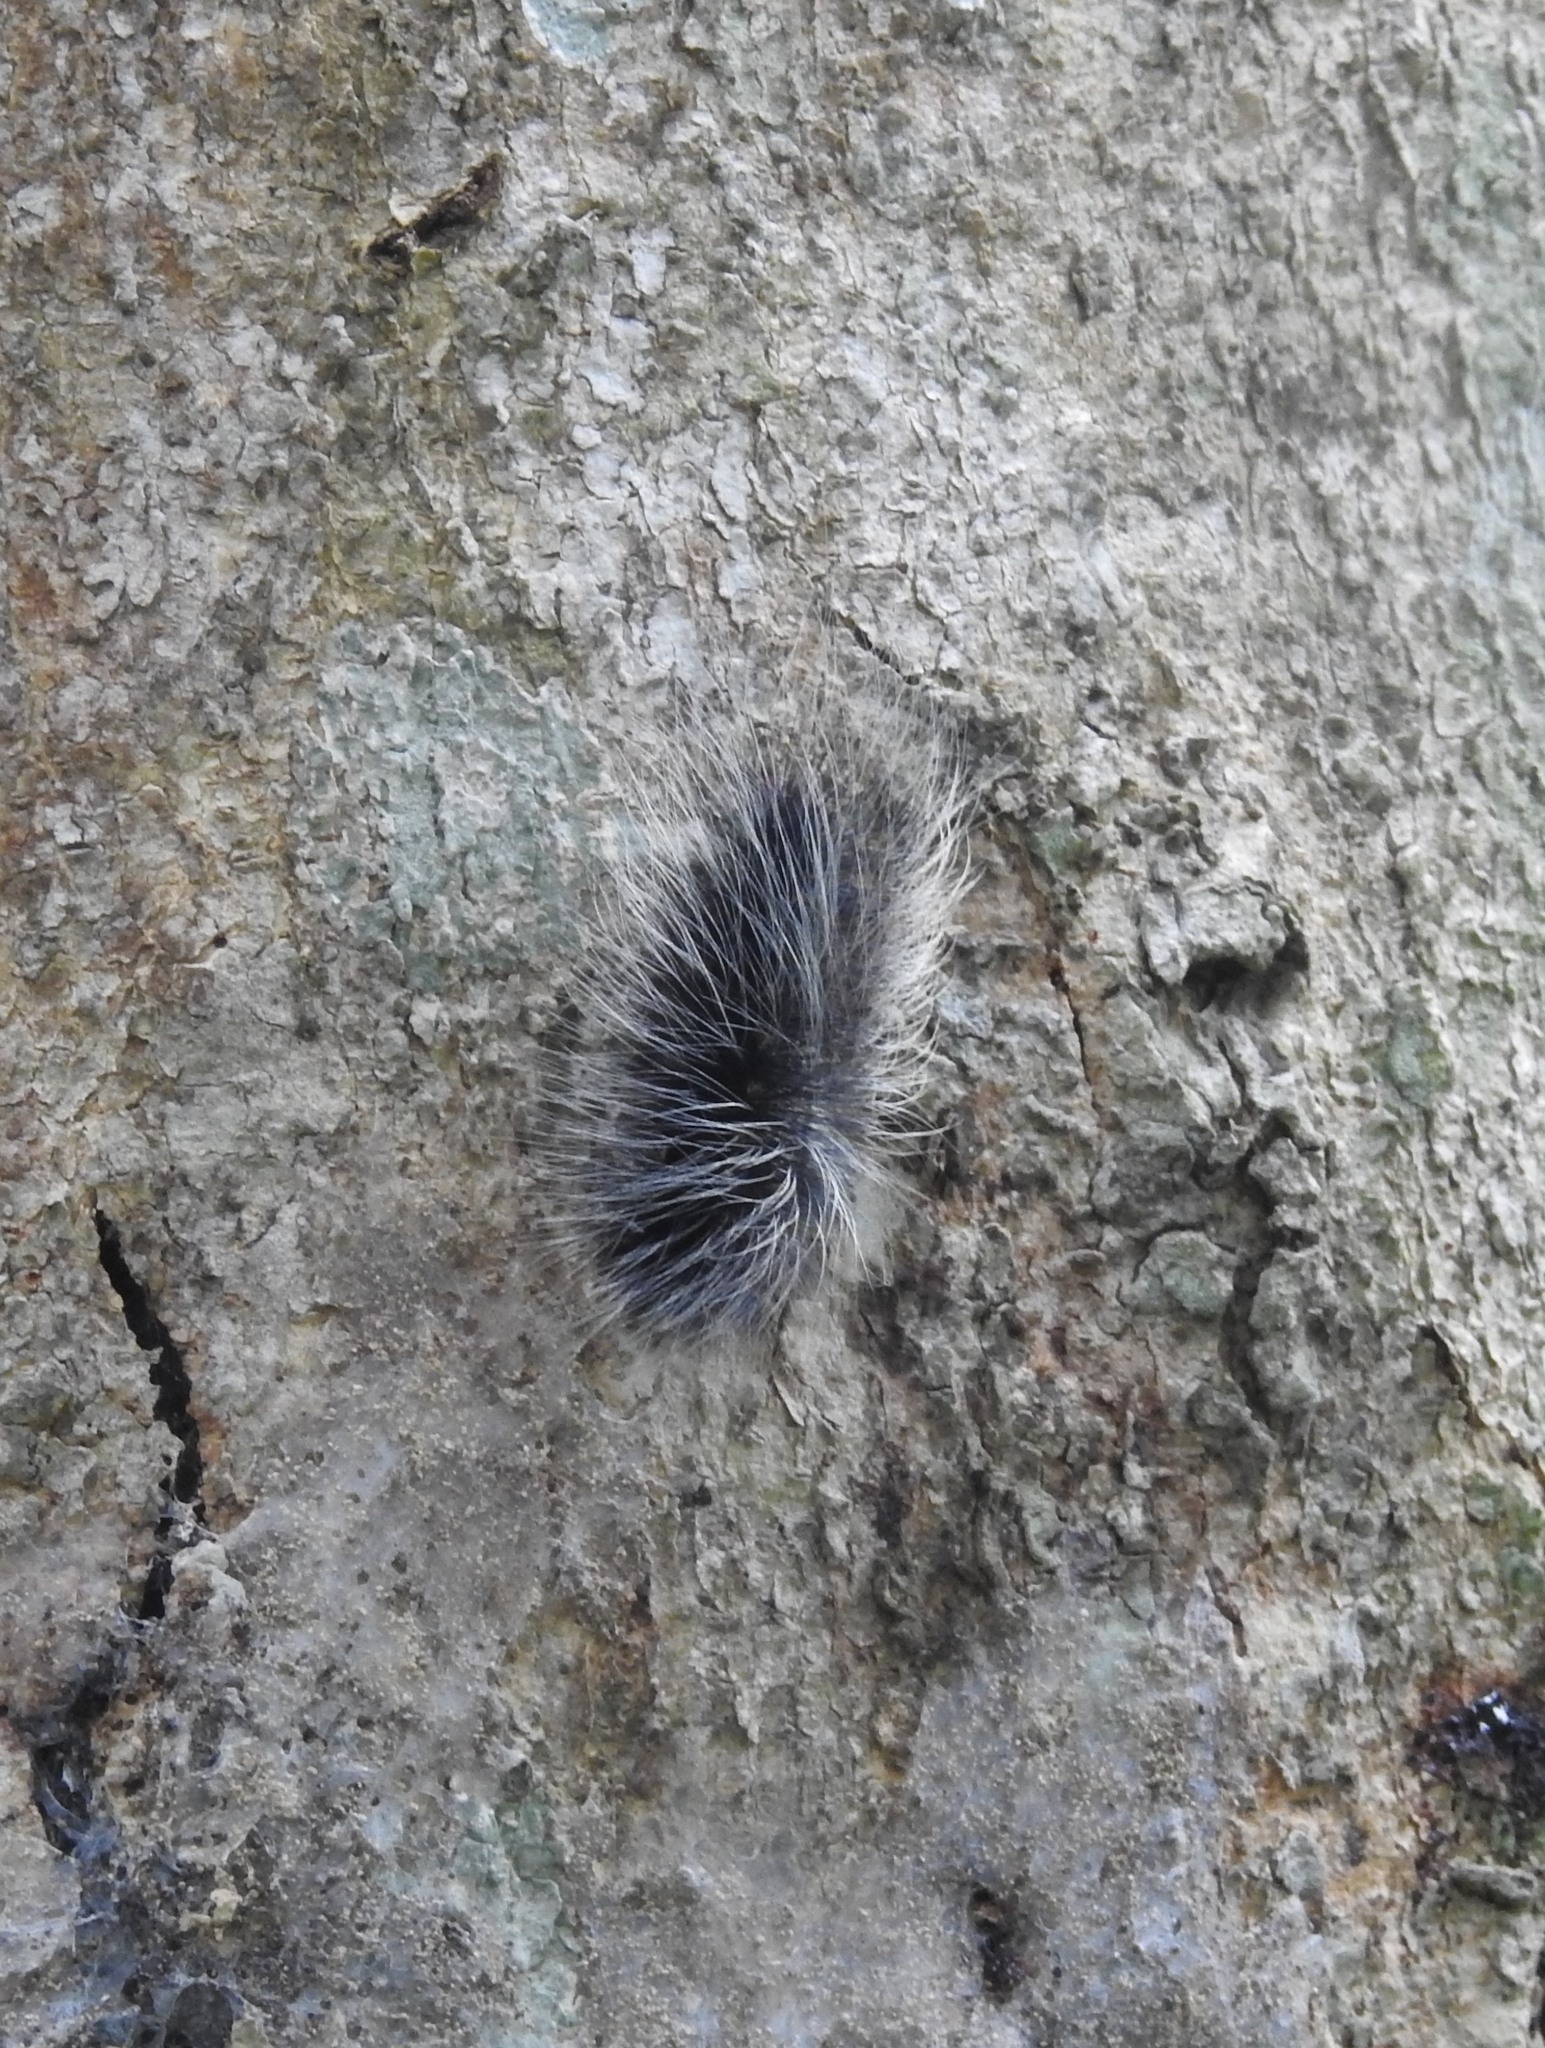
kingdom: Animalia
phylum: Arthropoda
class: Insecta
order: Lepidoptera
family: Erebidae
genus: Macrobrochis
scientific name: Macrobrochis gigas
